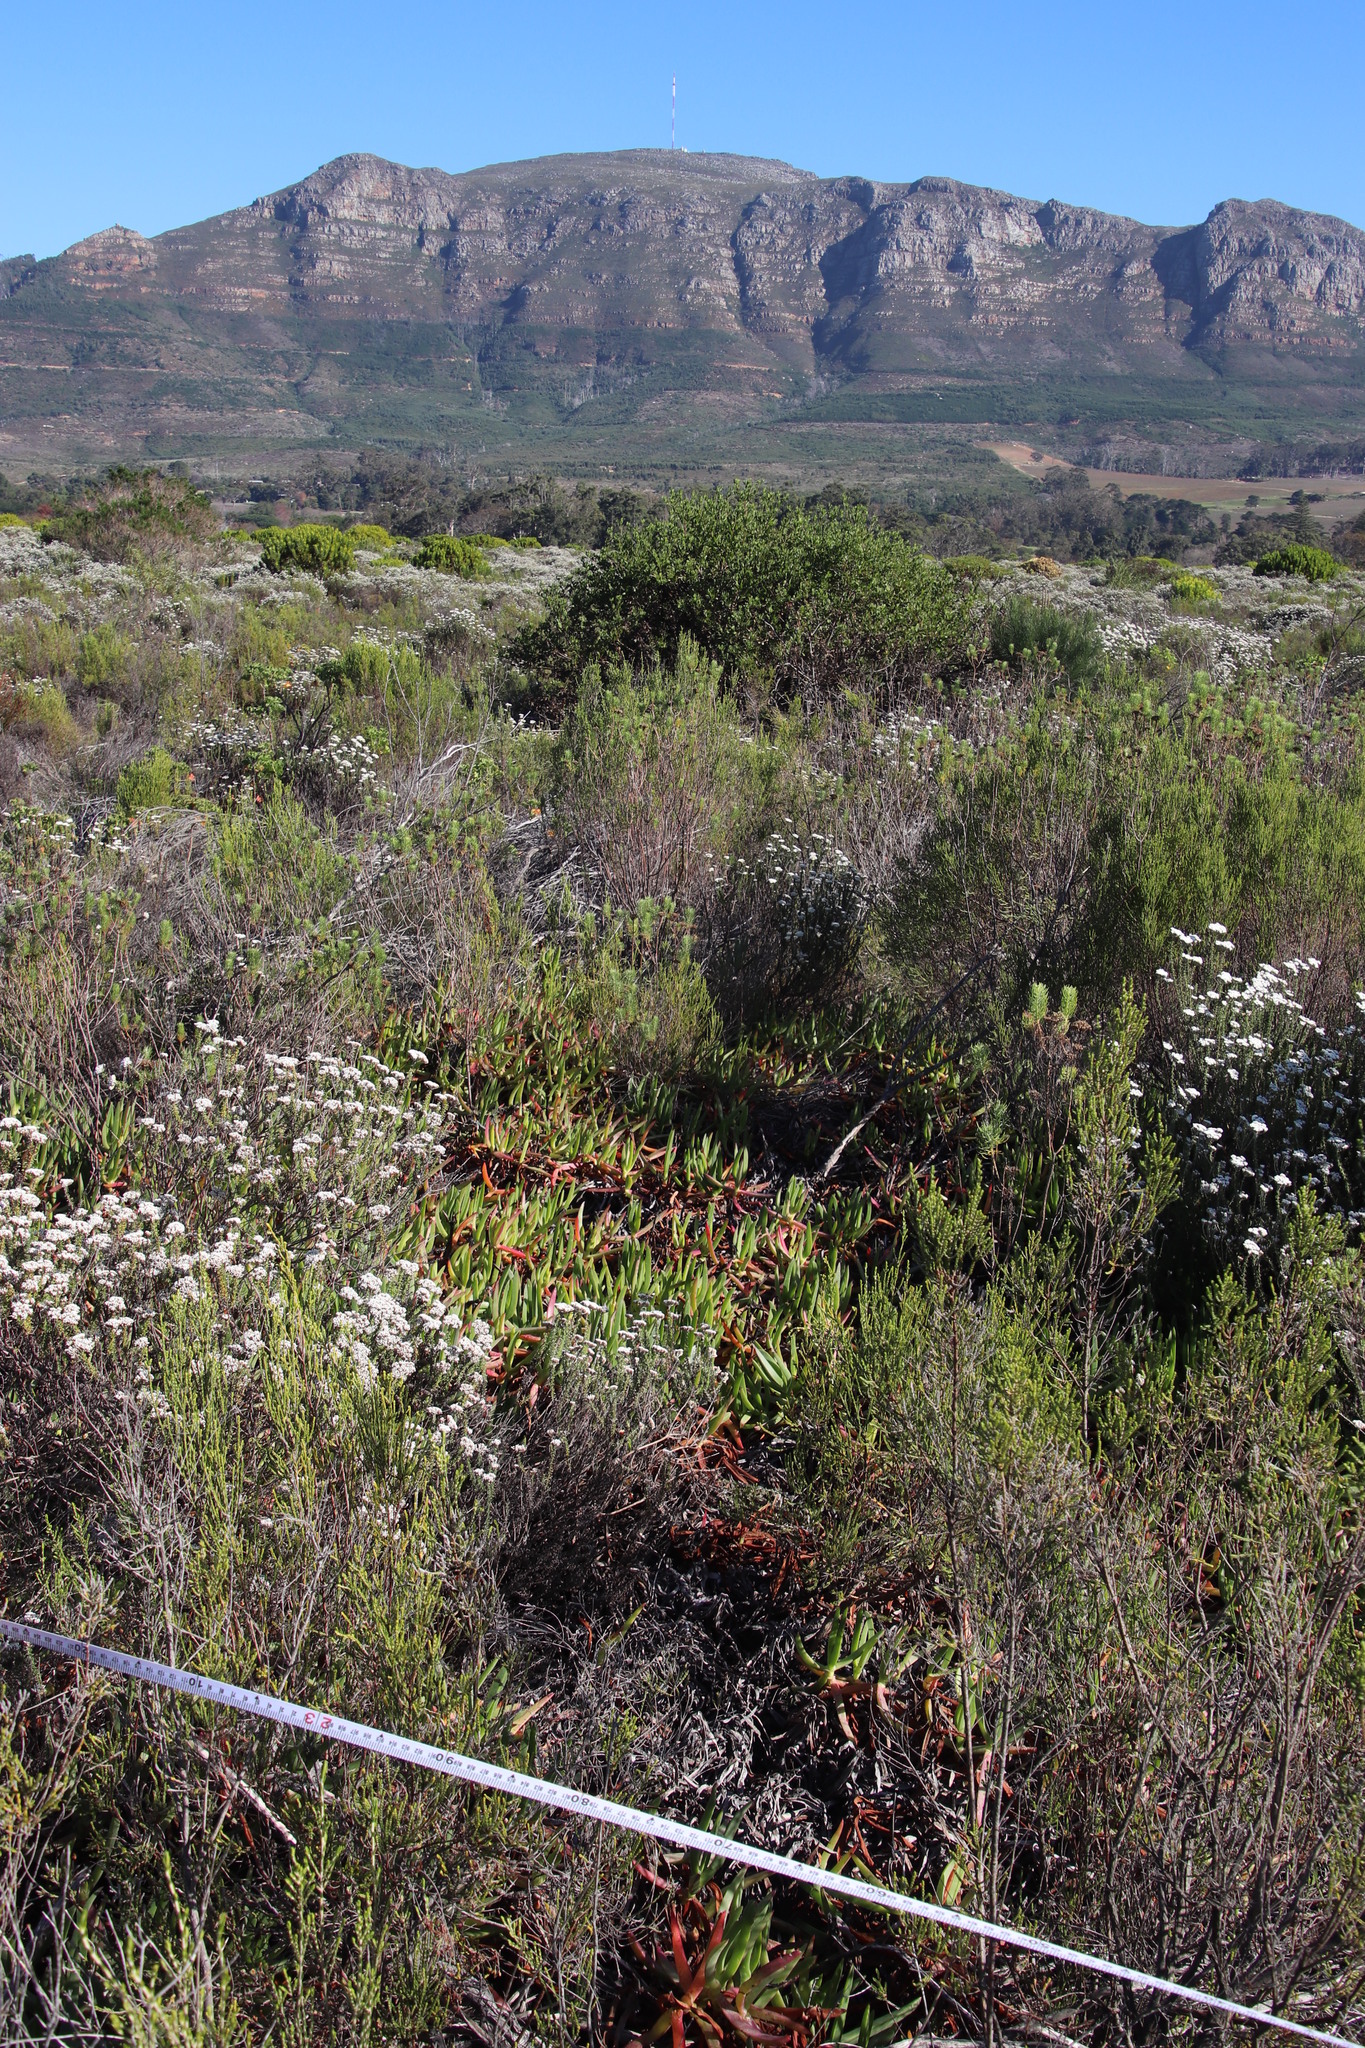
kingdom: Plantae
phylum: Tracheophyta
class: Magnoliopsida
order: Caryophyllales
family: Aizoaceae
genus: Carpobrotus
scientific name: Carpobrotus edulis
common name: Hottentot-fig
